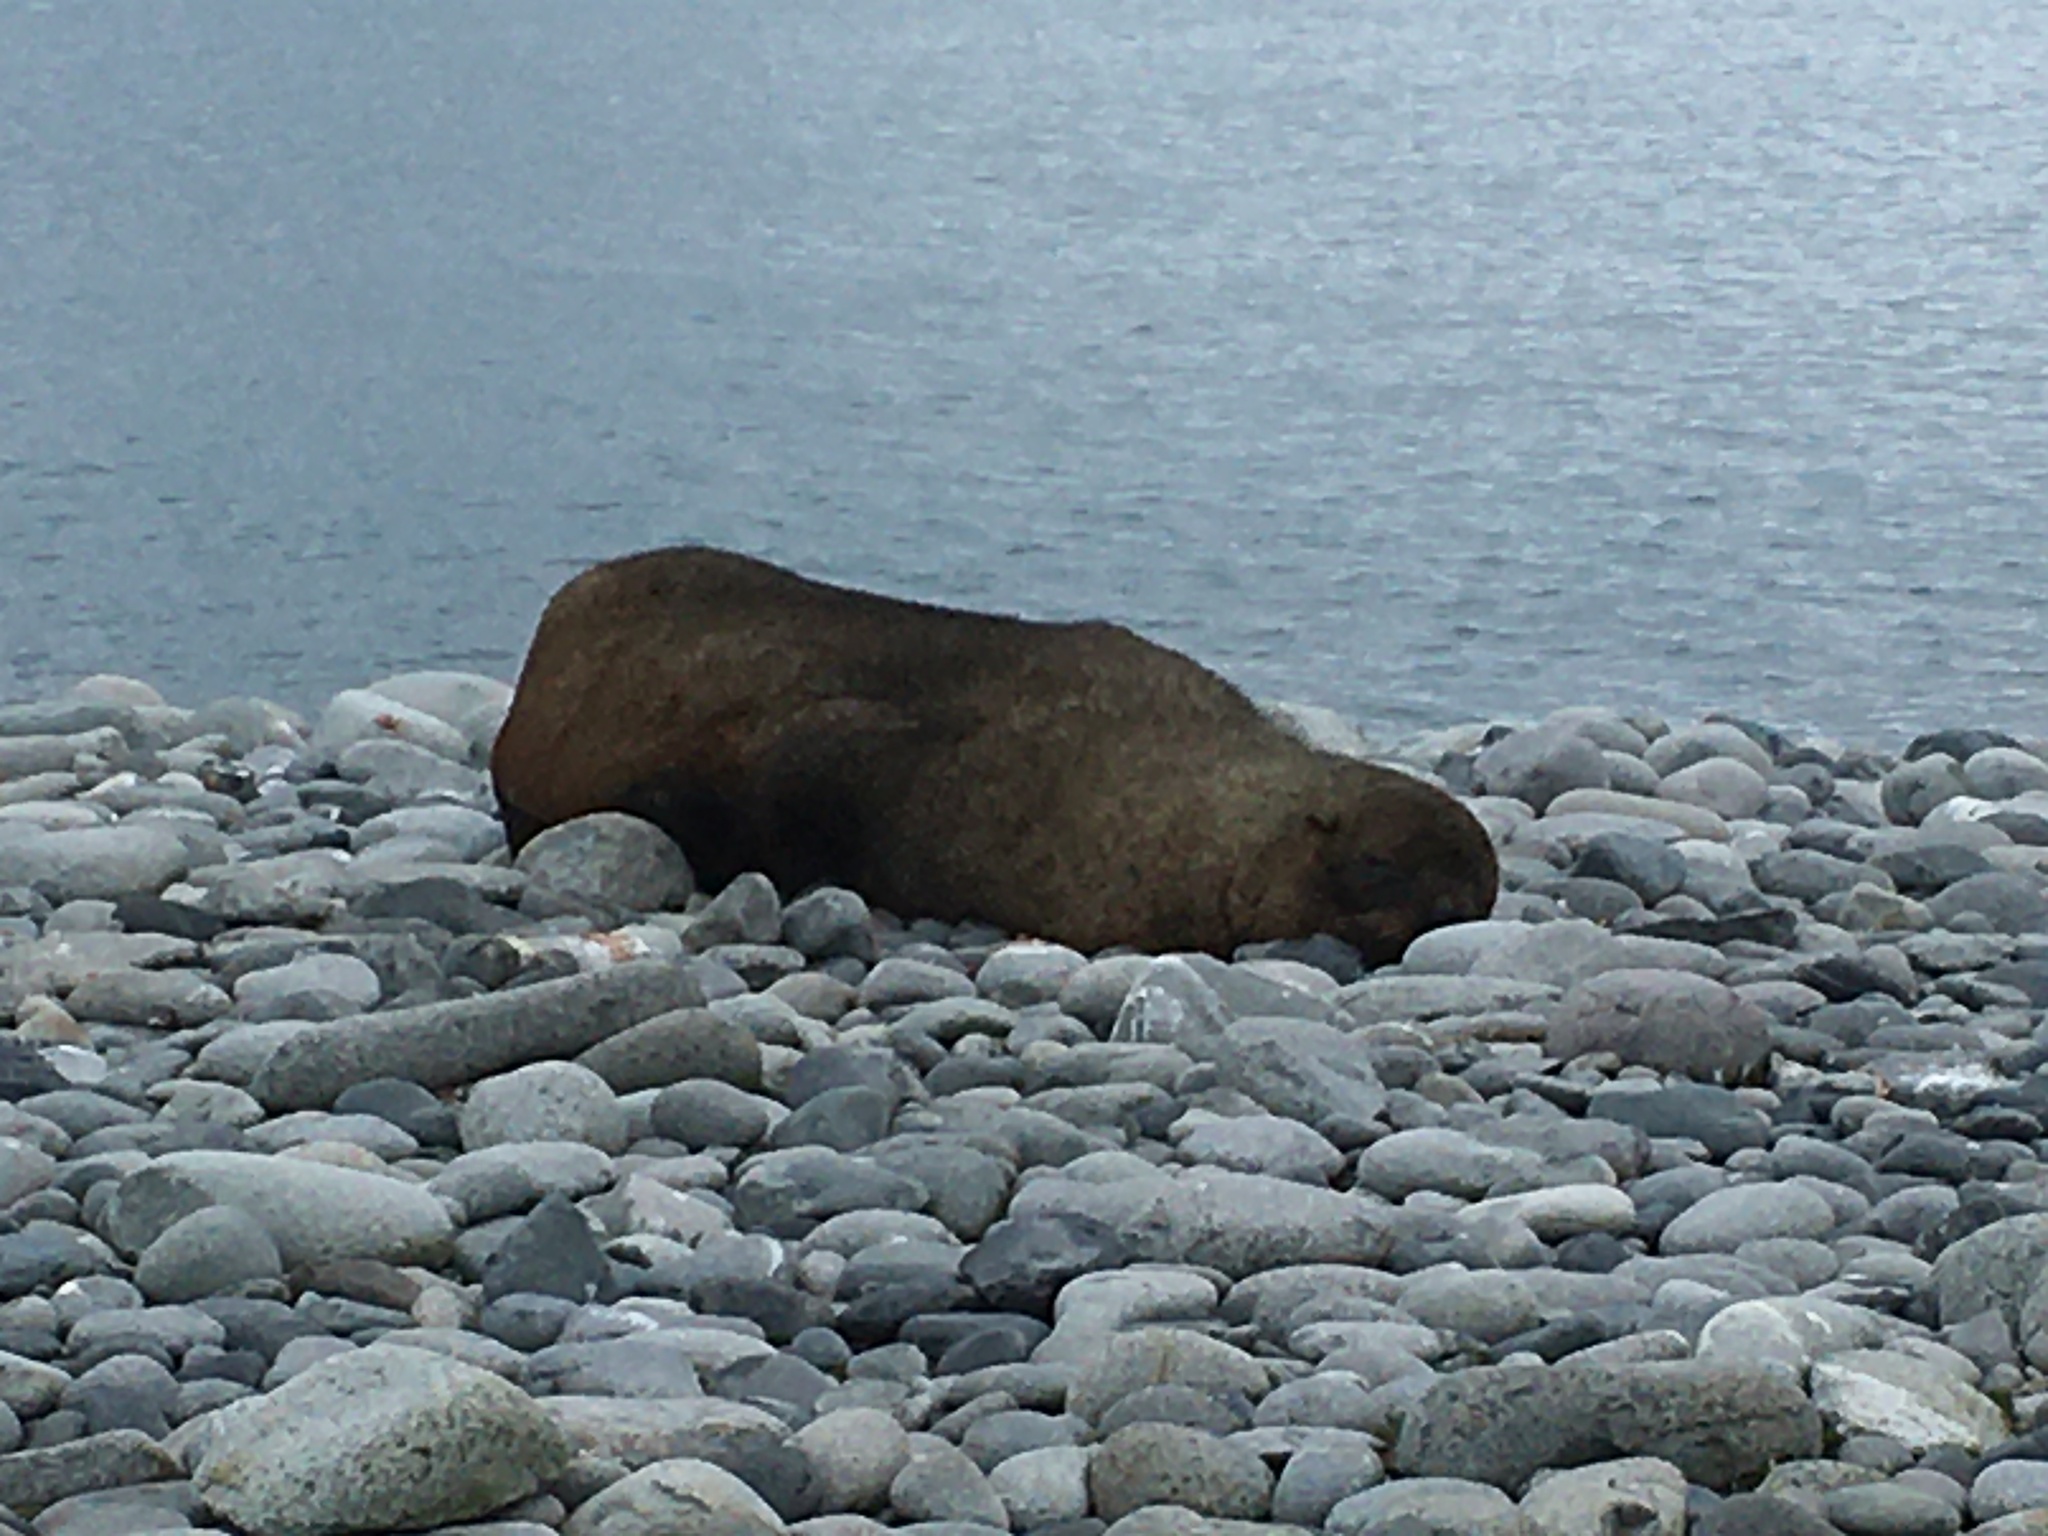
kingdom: Animalia
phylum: Chordata
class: Mammalia
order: Carnivora
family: Otariidae
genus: Arctocephalus
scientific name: Arctocephalus gazella
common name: Antarctic fur seal
